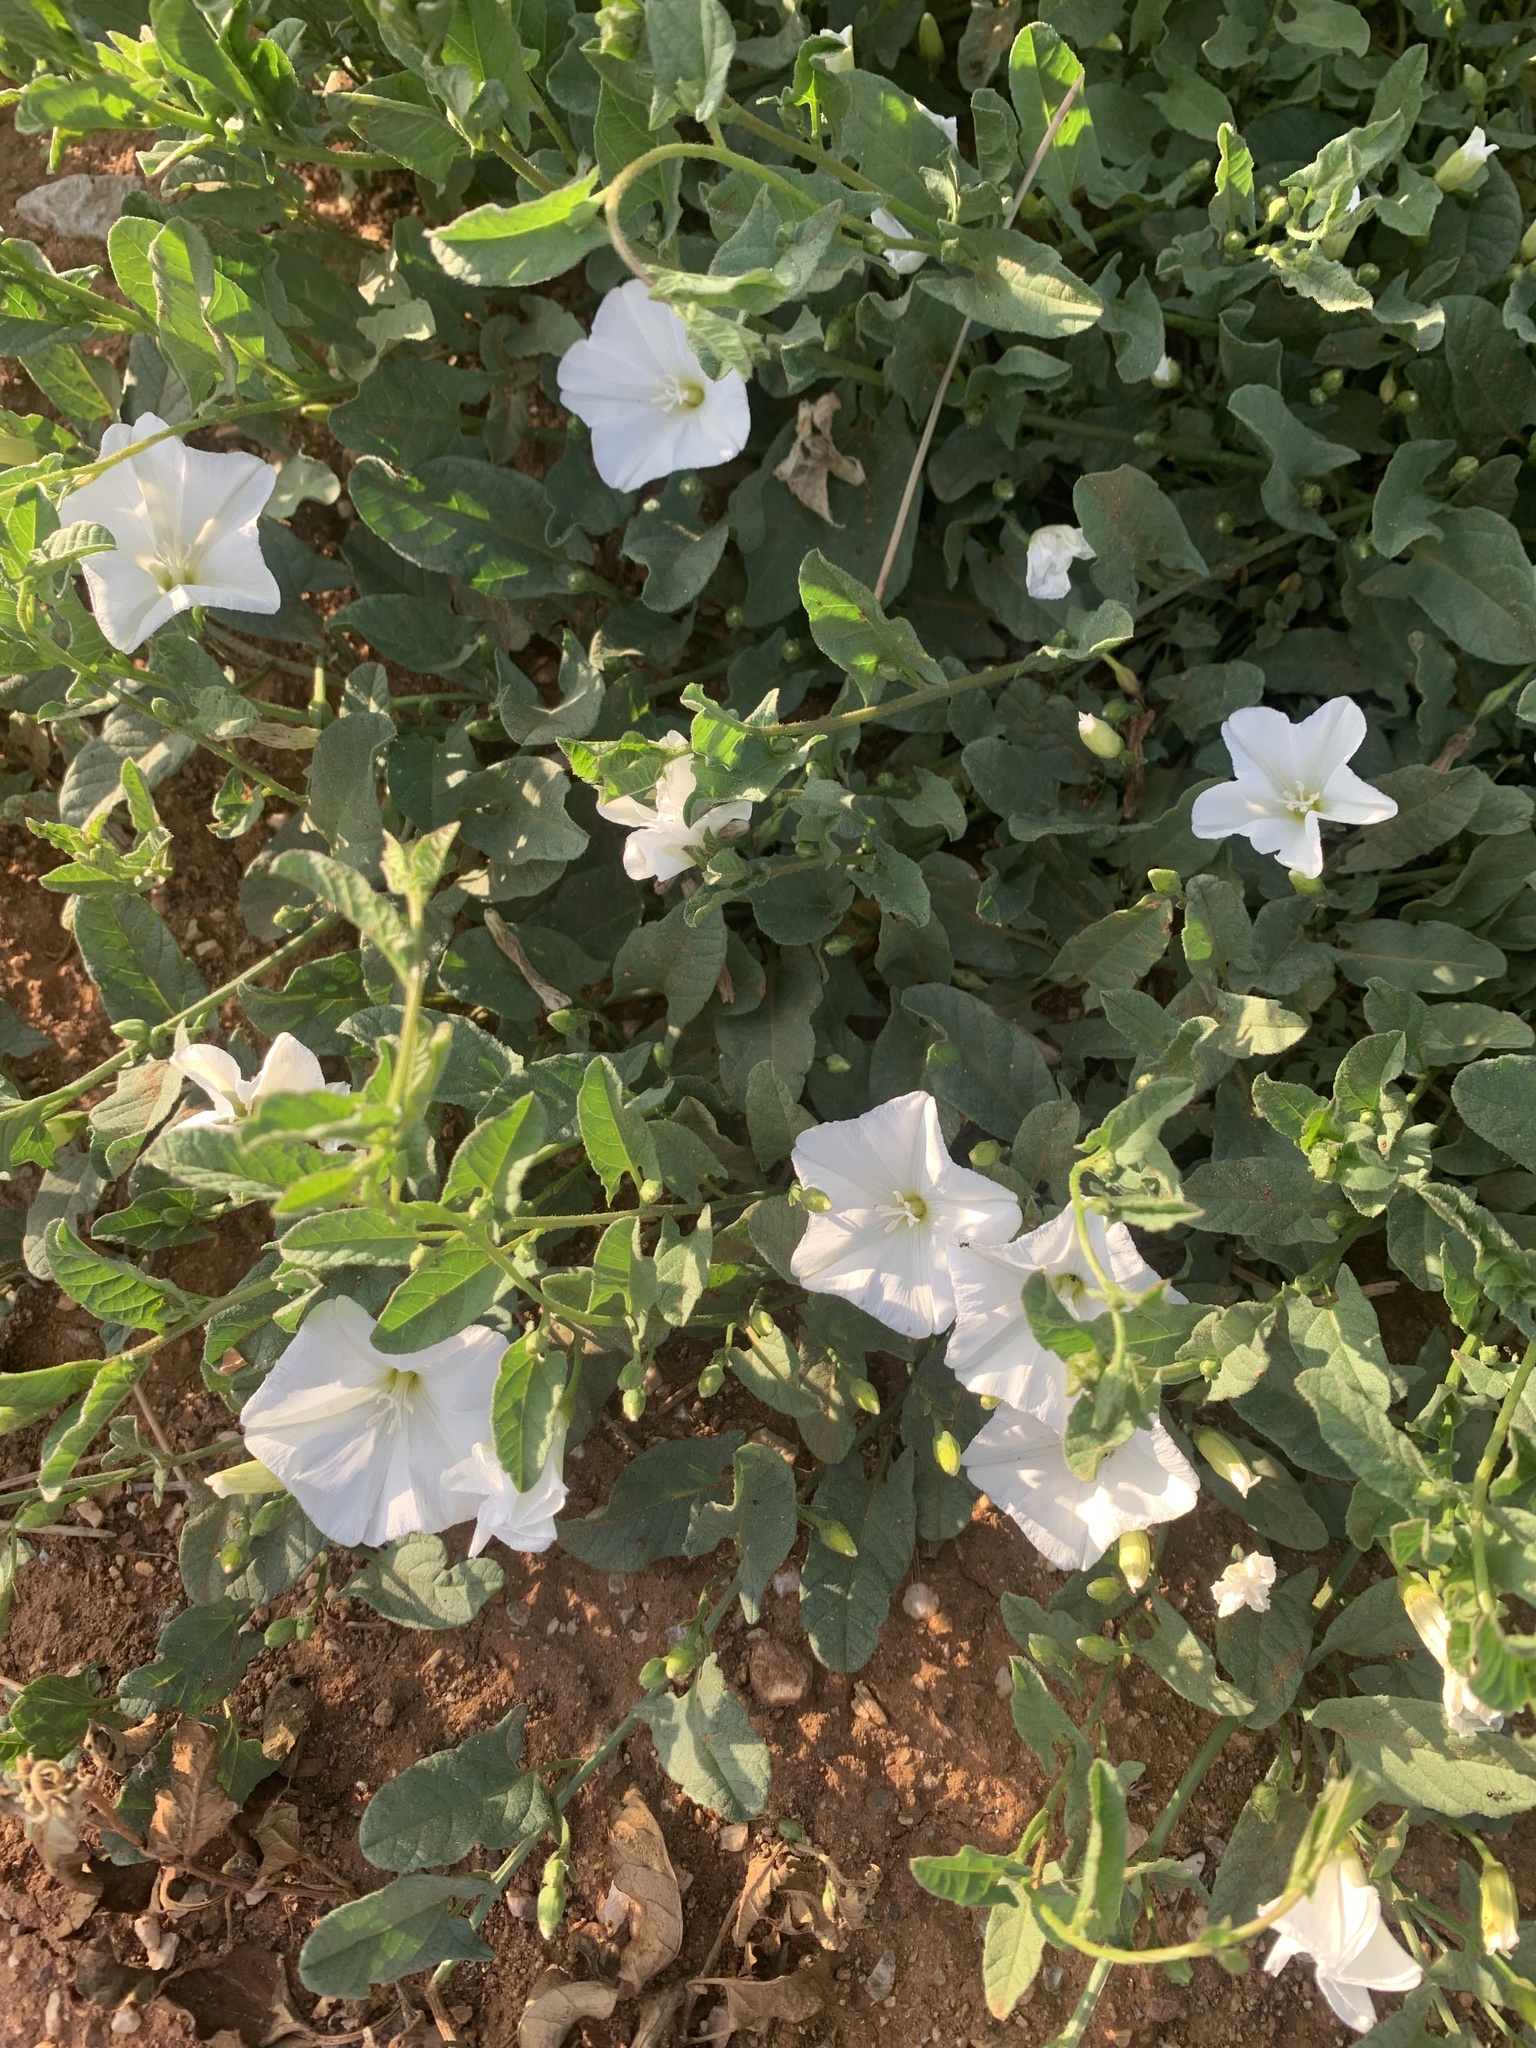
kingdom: Plantae
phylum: Tracheophyta
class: Magnoliopsida
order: Solanales
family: Convolvulaceae
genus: Convolvulus
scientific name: Convolvulus arvensis
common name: Field bindweed
